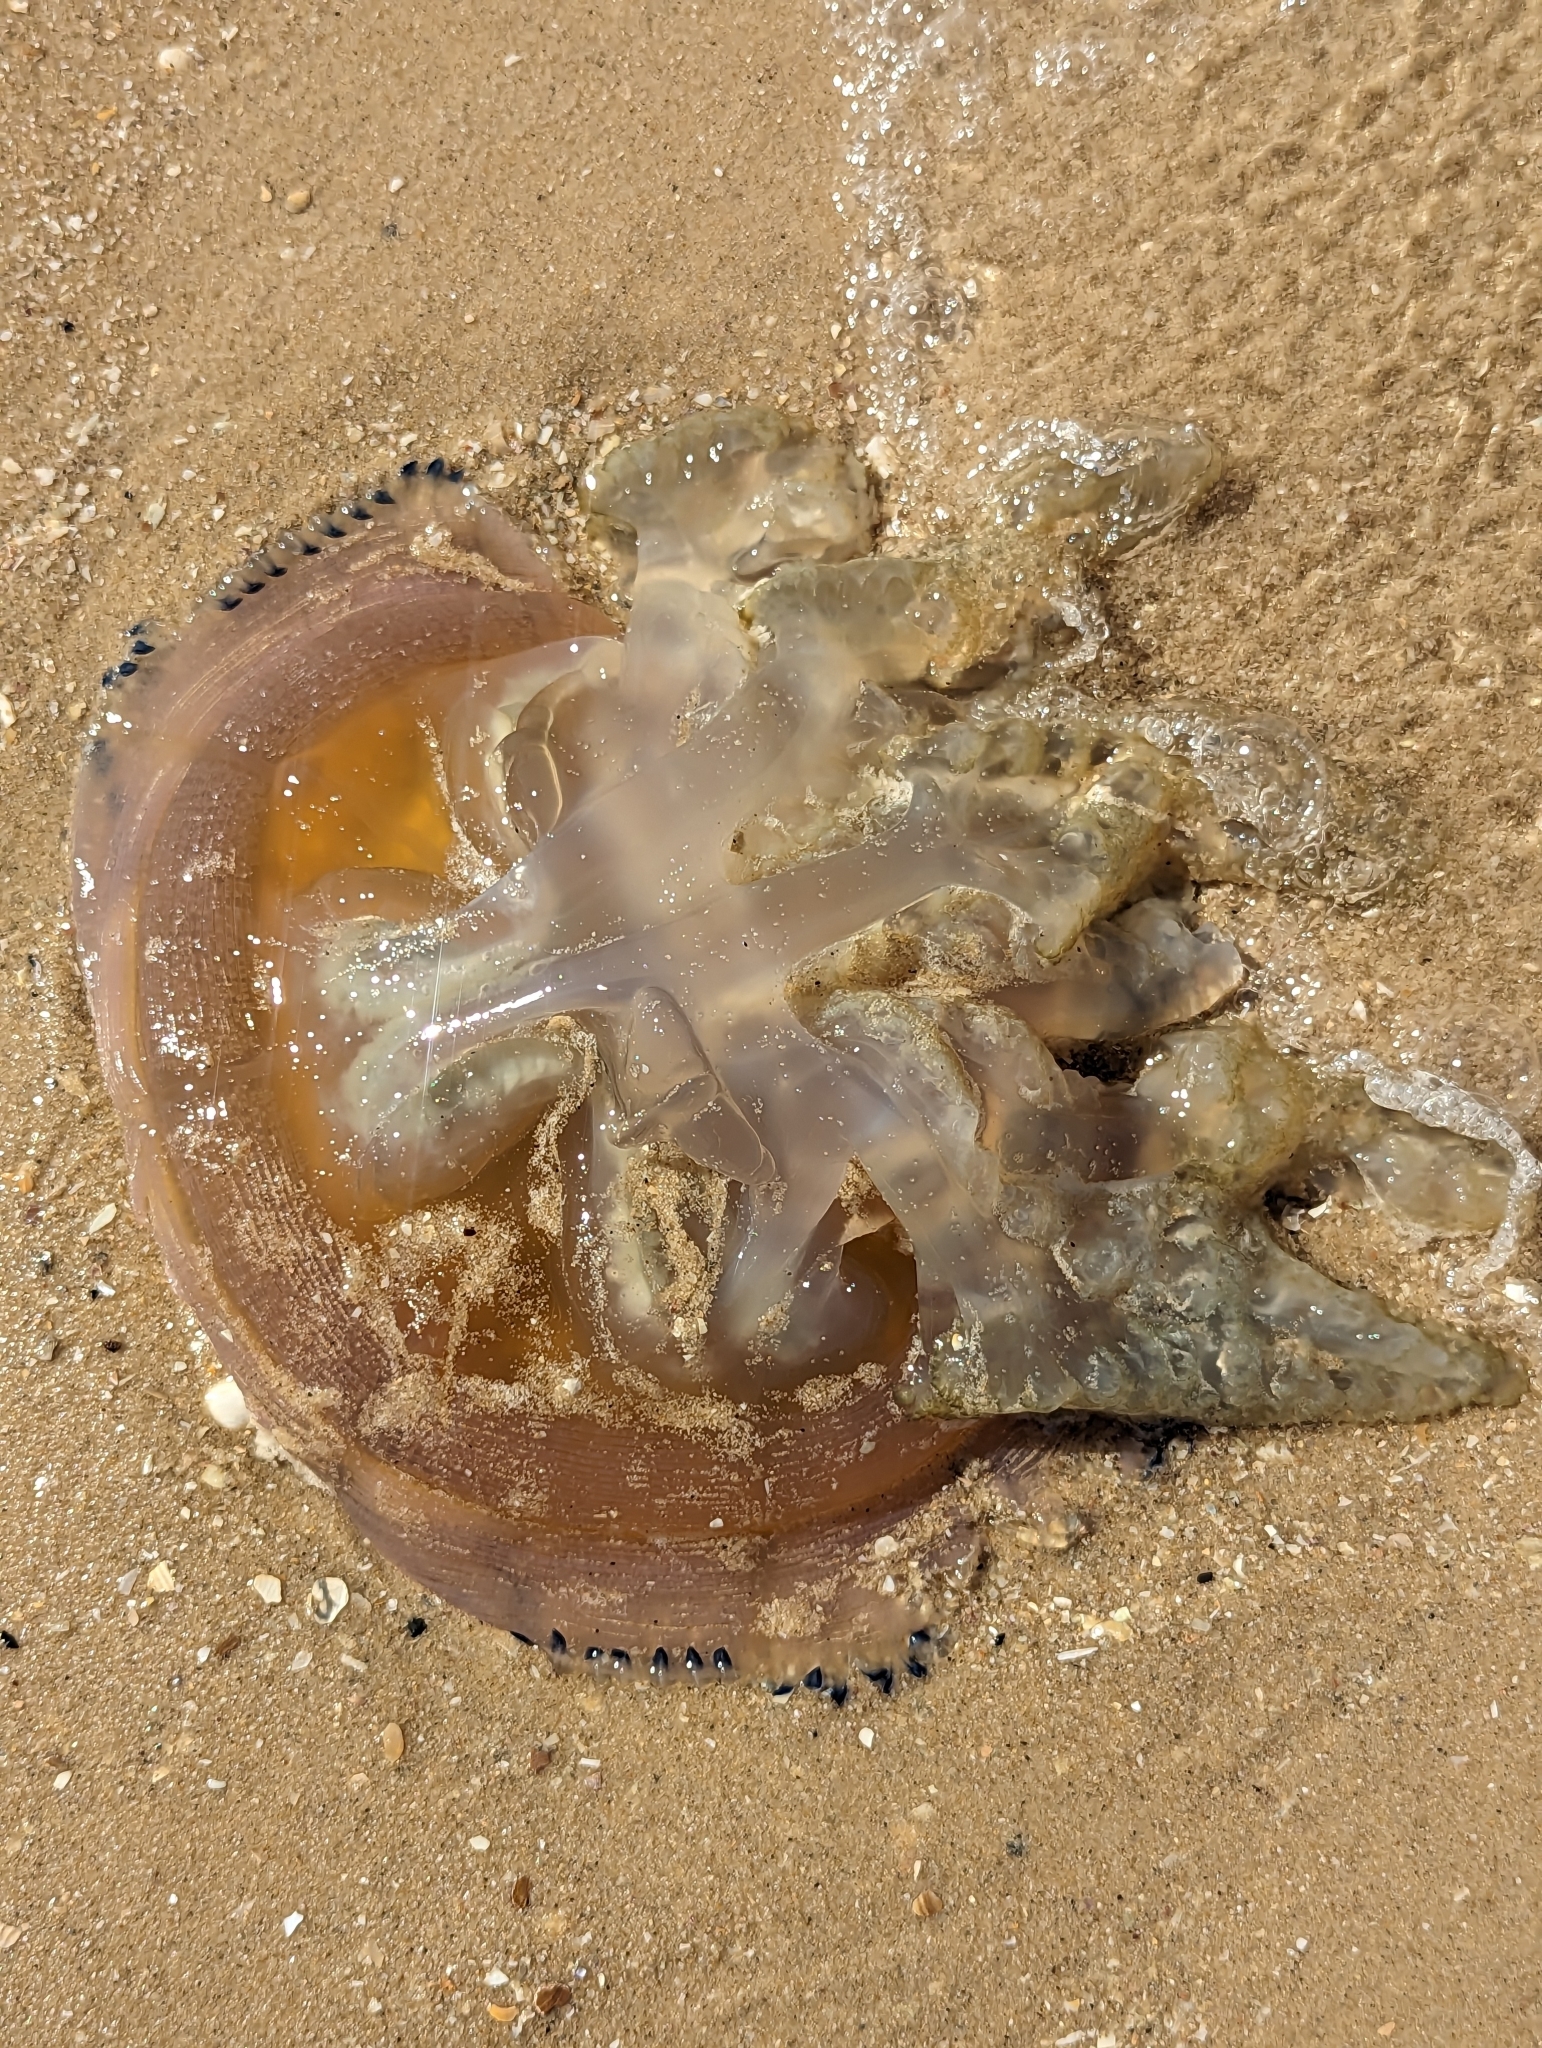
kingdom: Animalia
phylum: Cnidaria
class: Scyphozoa
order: Rhizostomeae
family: Catostylidae
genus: Catostylus
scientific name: Catostylus mosaicus
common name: Blue blubber
